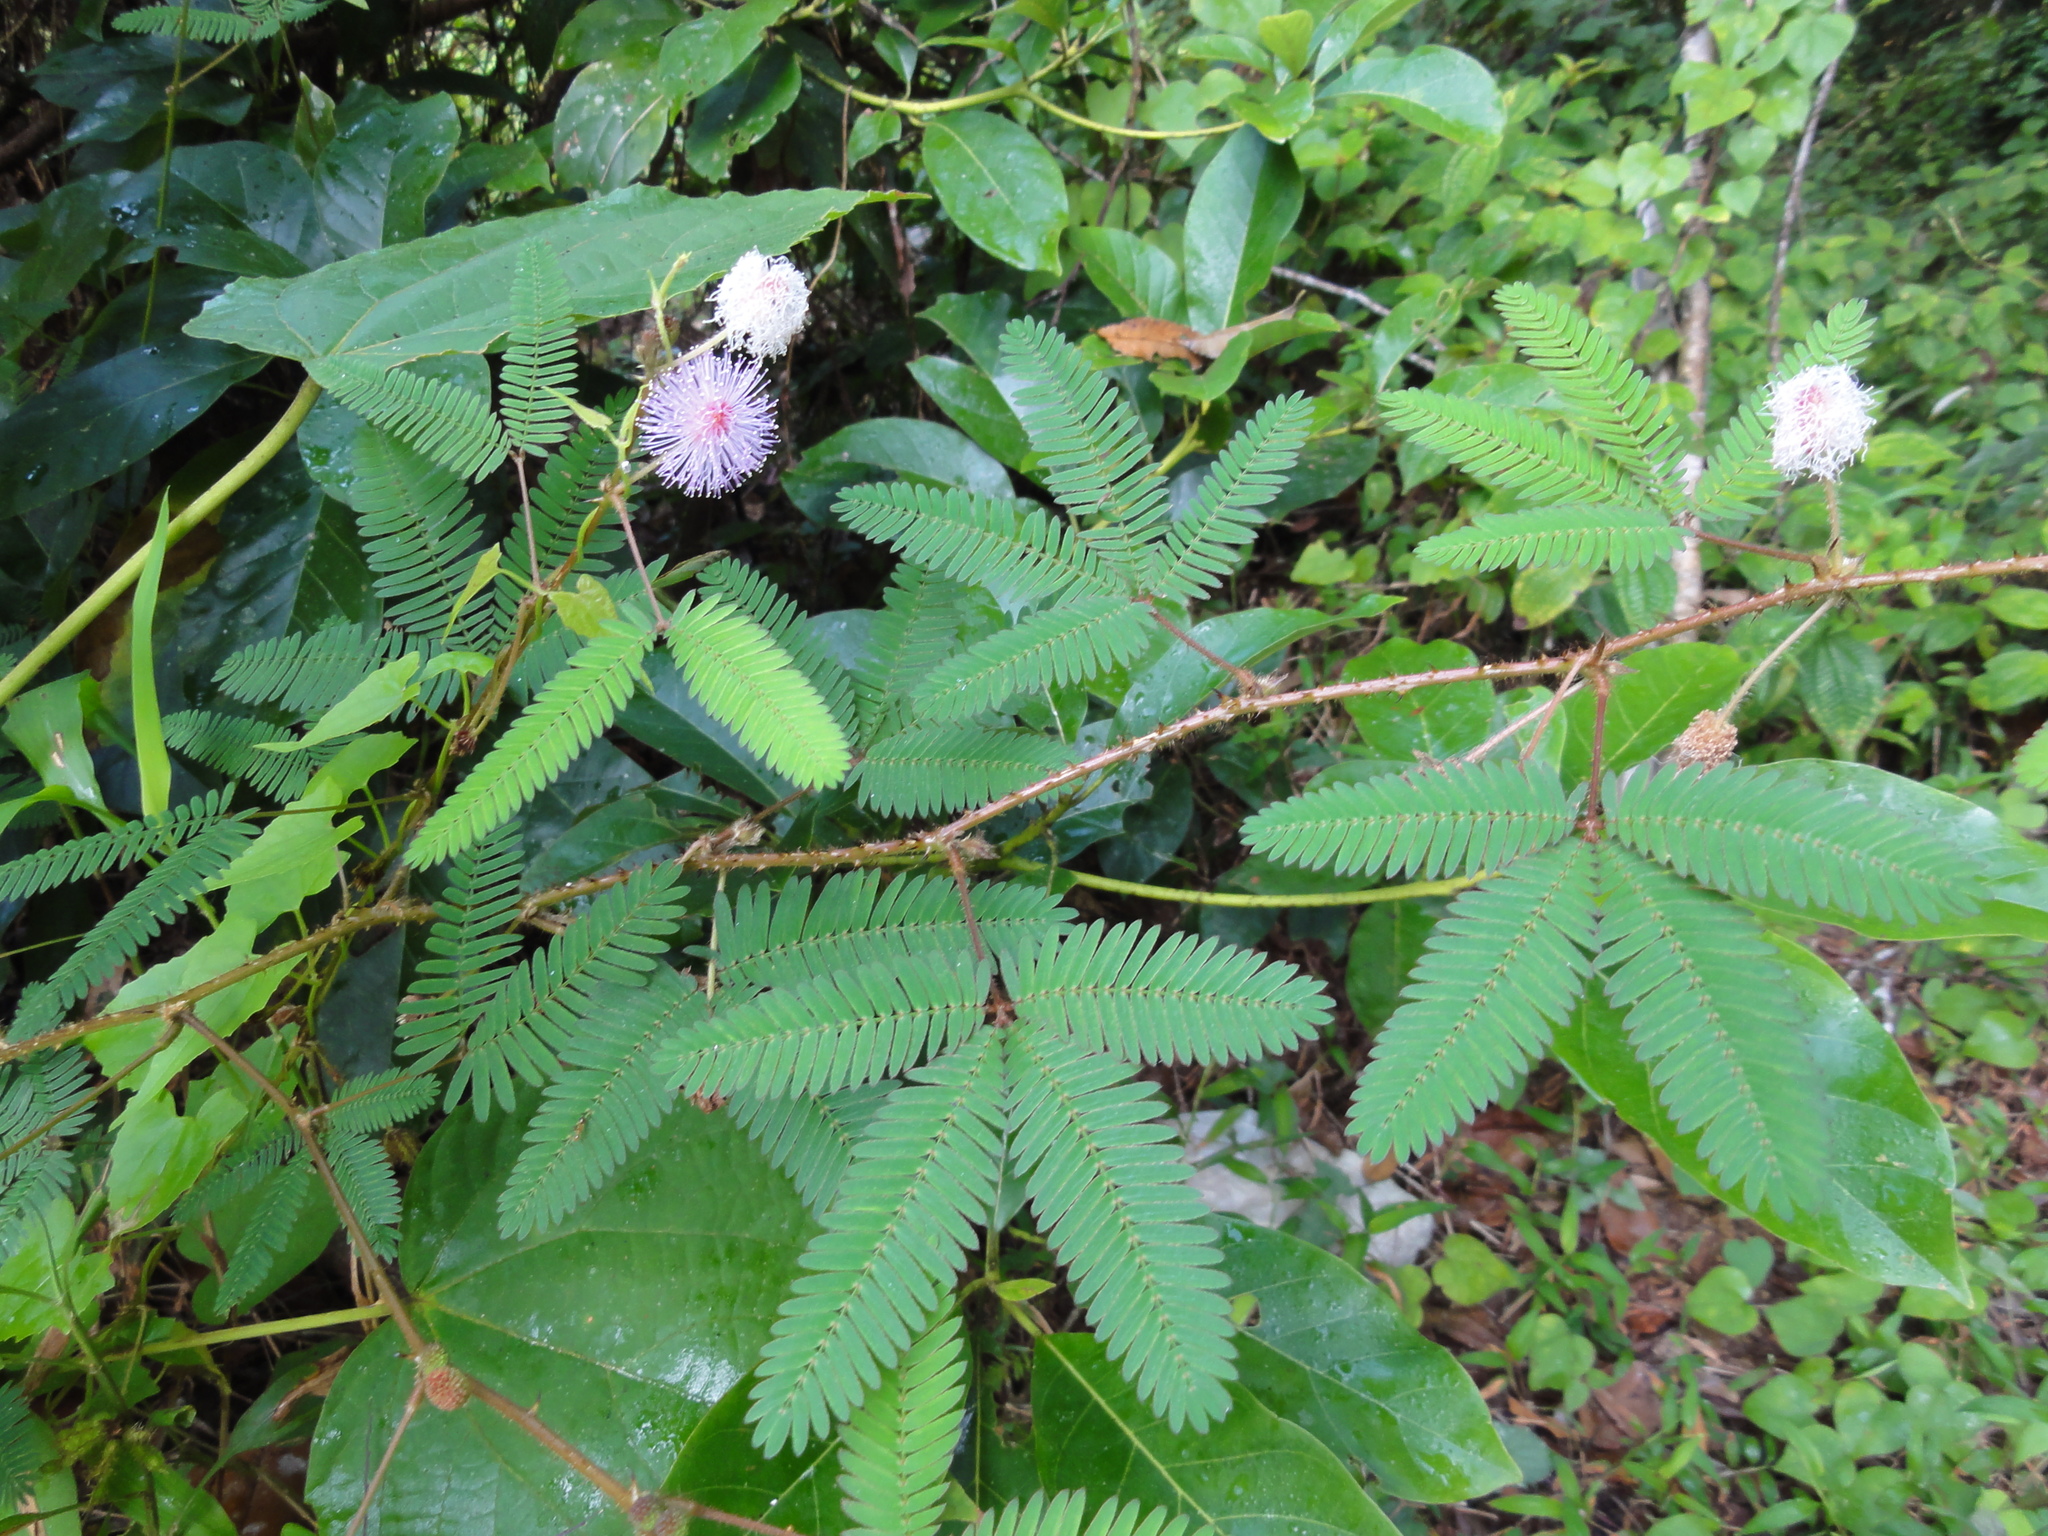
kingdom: Plantae
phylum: Tracheophyta
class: Magnoliopsida
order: Fabales
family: Fabaceae
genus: Mimosa
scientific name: Mimosa pudica
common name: Sensitive plant
